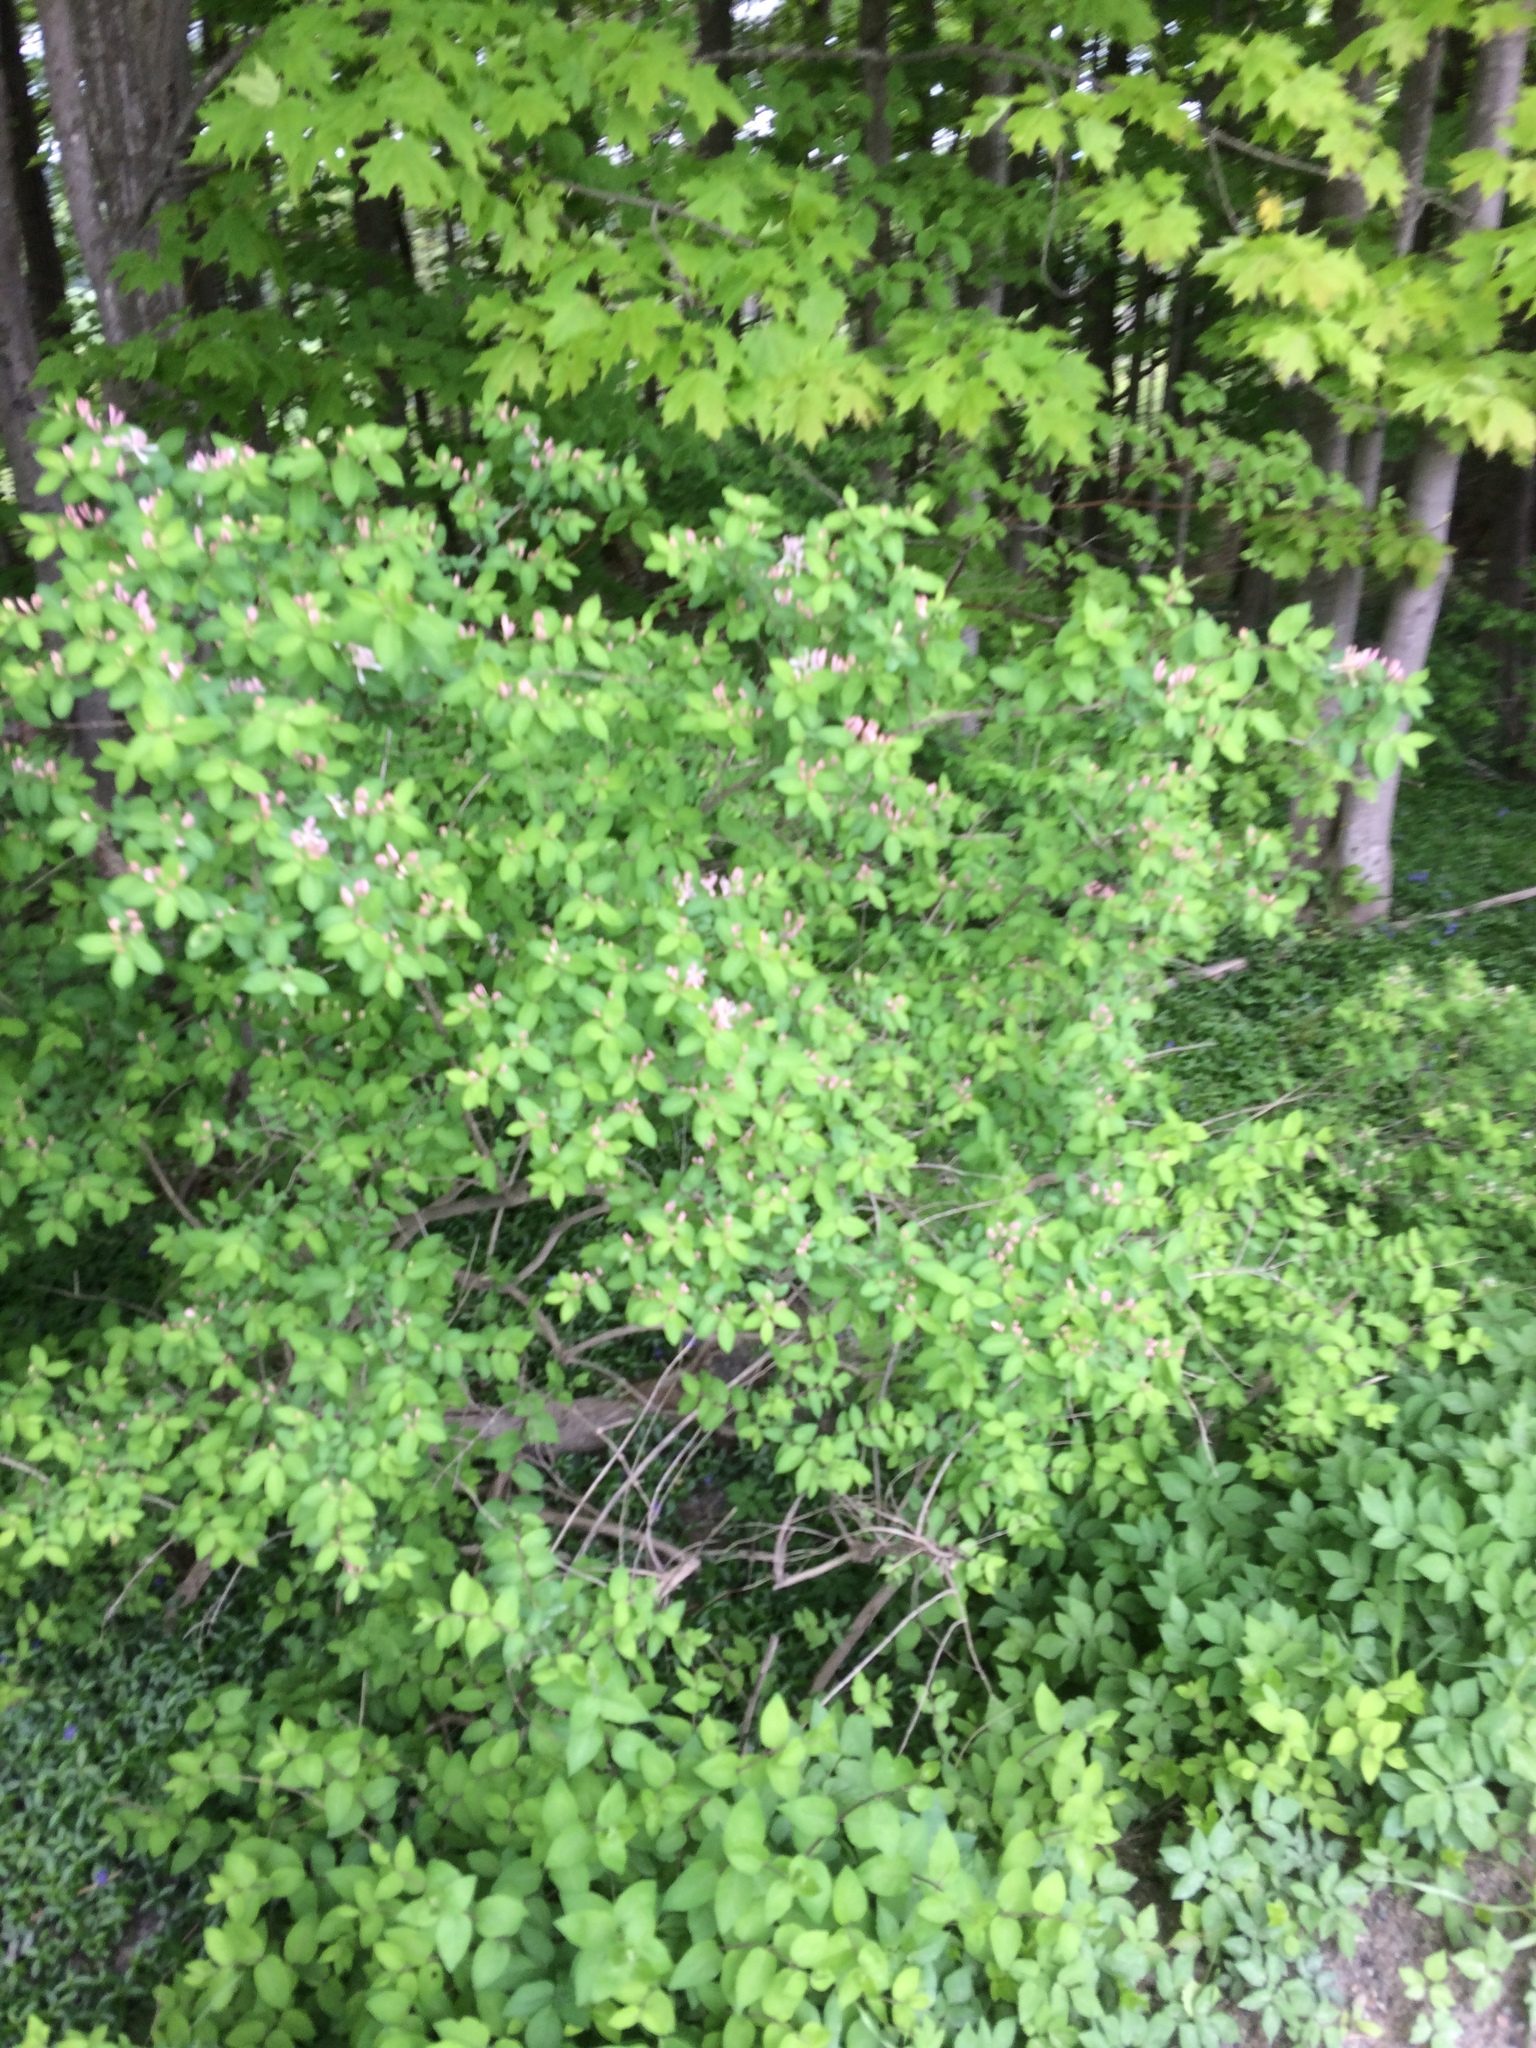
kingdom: Plantae
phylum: Tracheophyta
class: Magnoliopsida
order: Dipsacales
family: Caprifoliaceae
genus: Lonicera
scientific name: Lonicera tatarica
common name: Tatarian honeysuckle
